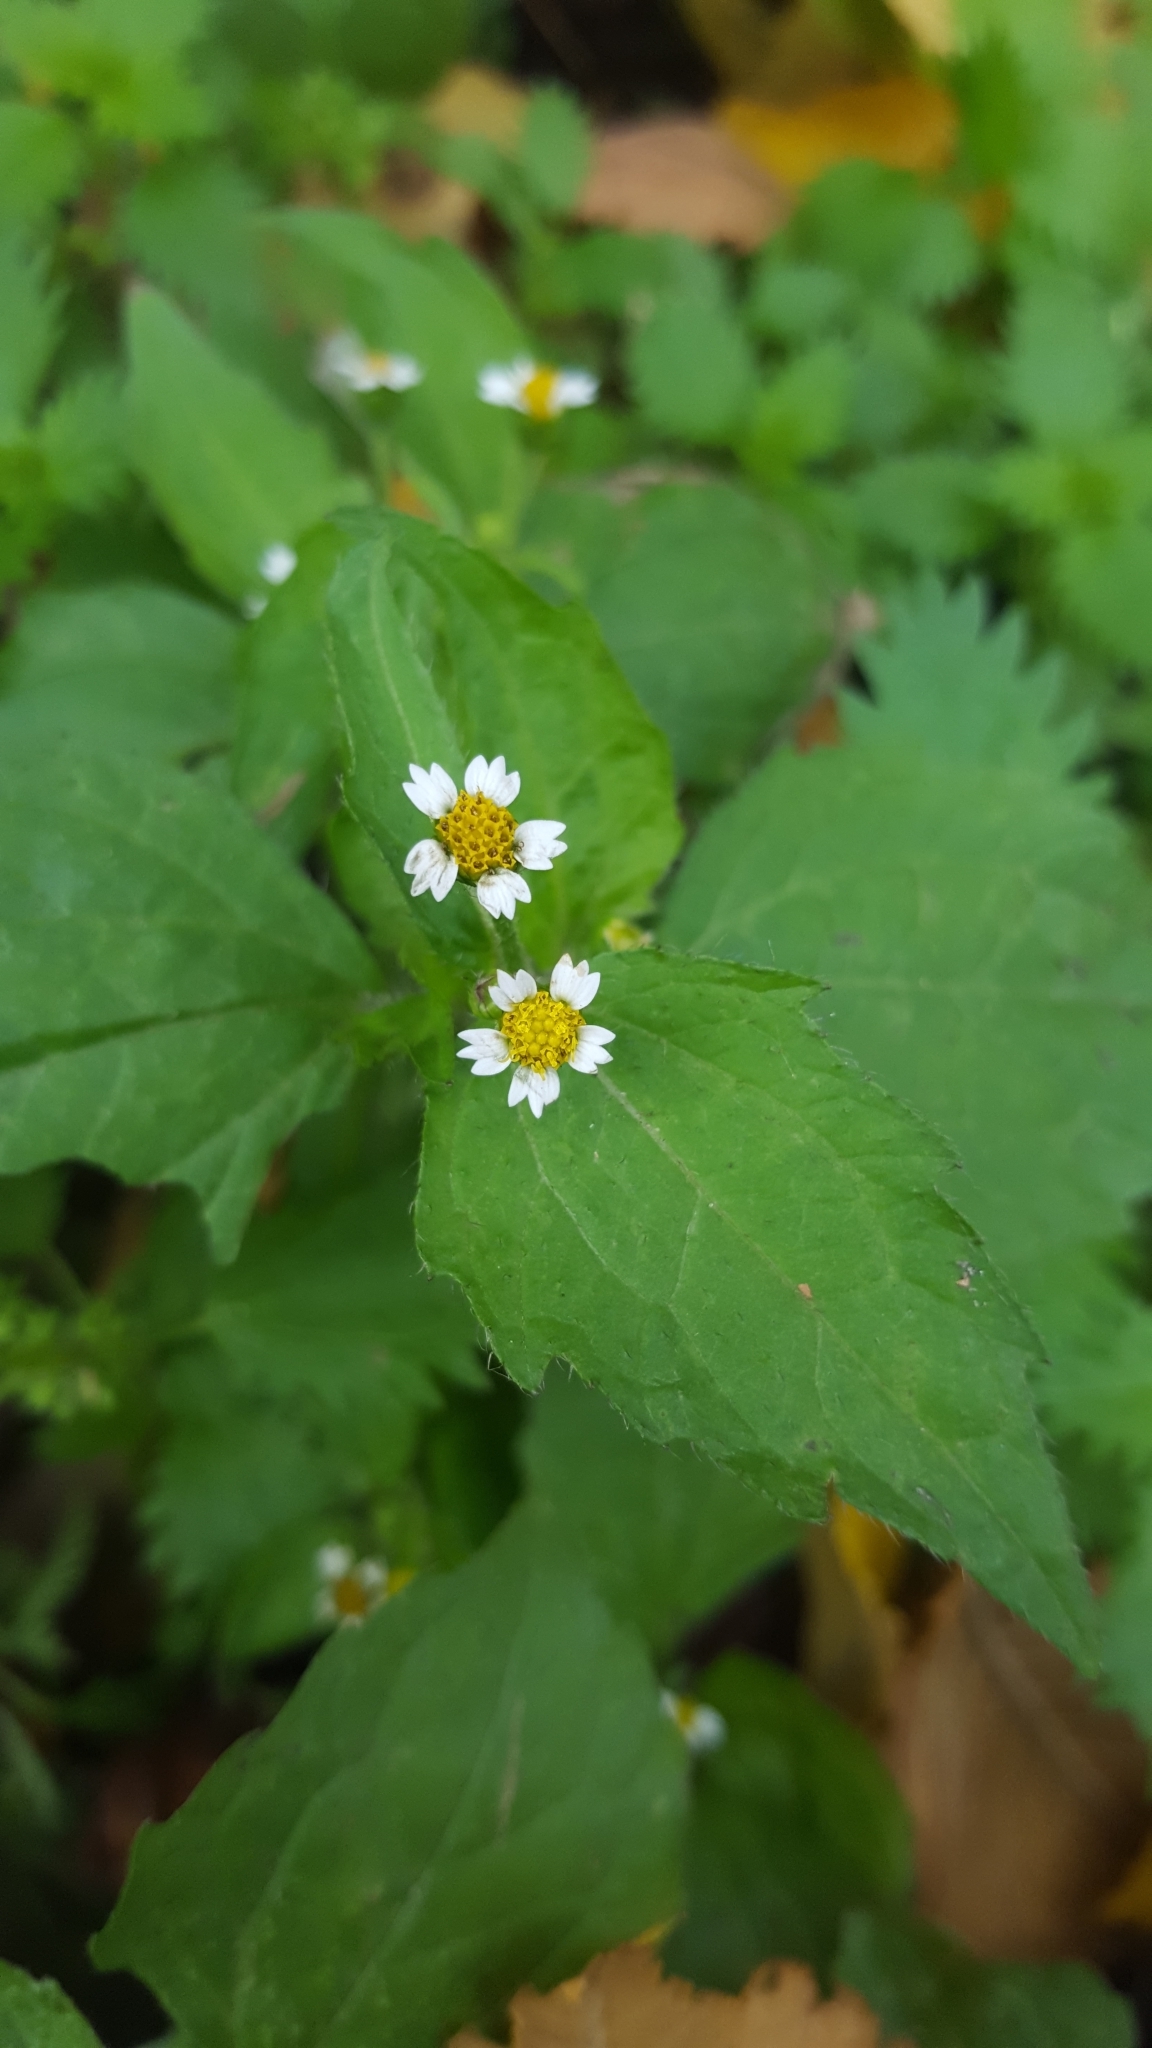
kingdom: Plantae
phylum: Tracheophyta
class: Magnoliopsida
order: Asterales
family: Asteraceae
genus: Galinsoga
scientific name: Galinsoga quadriradiata
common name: Shaggy soldier
